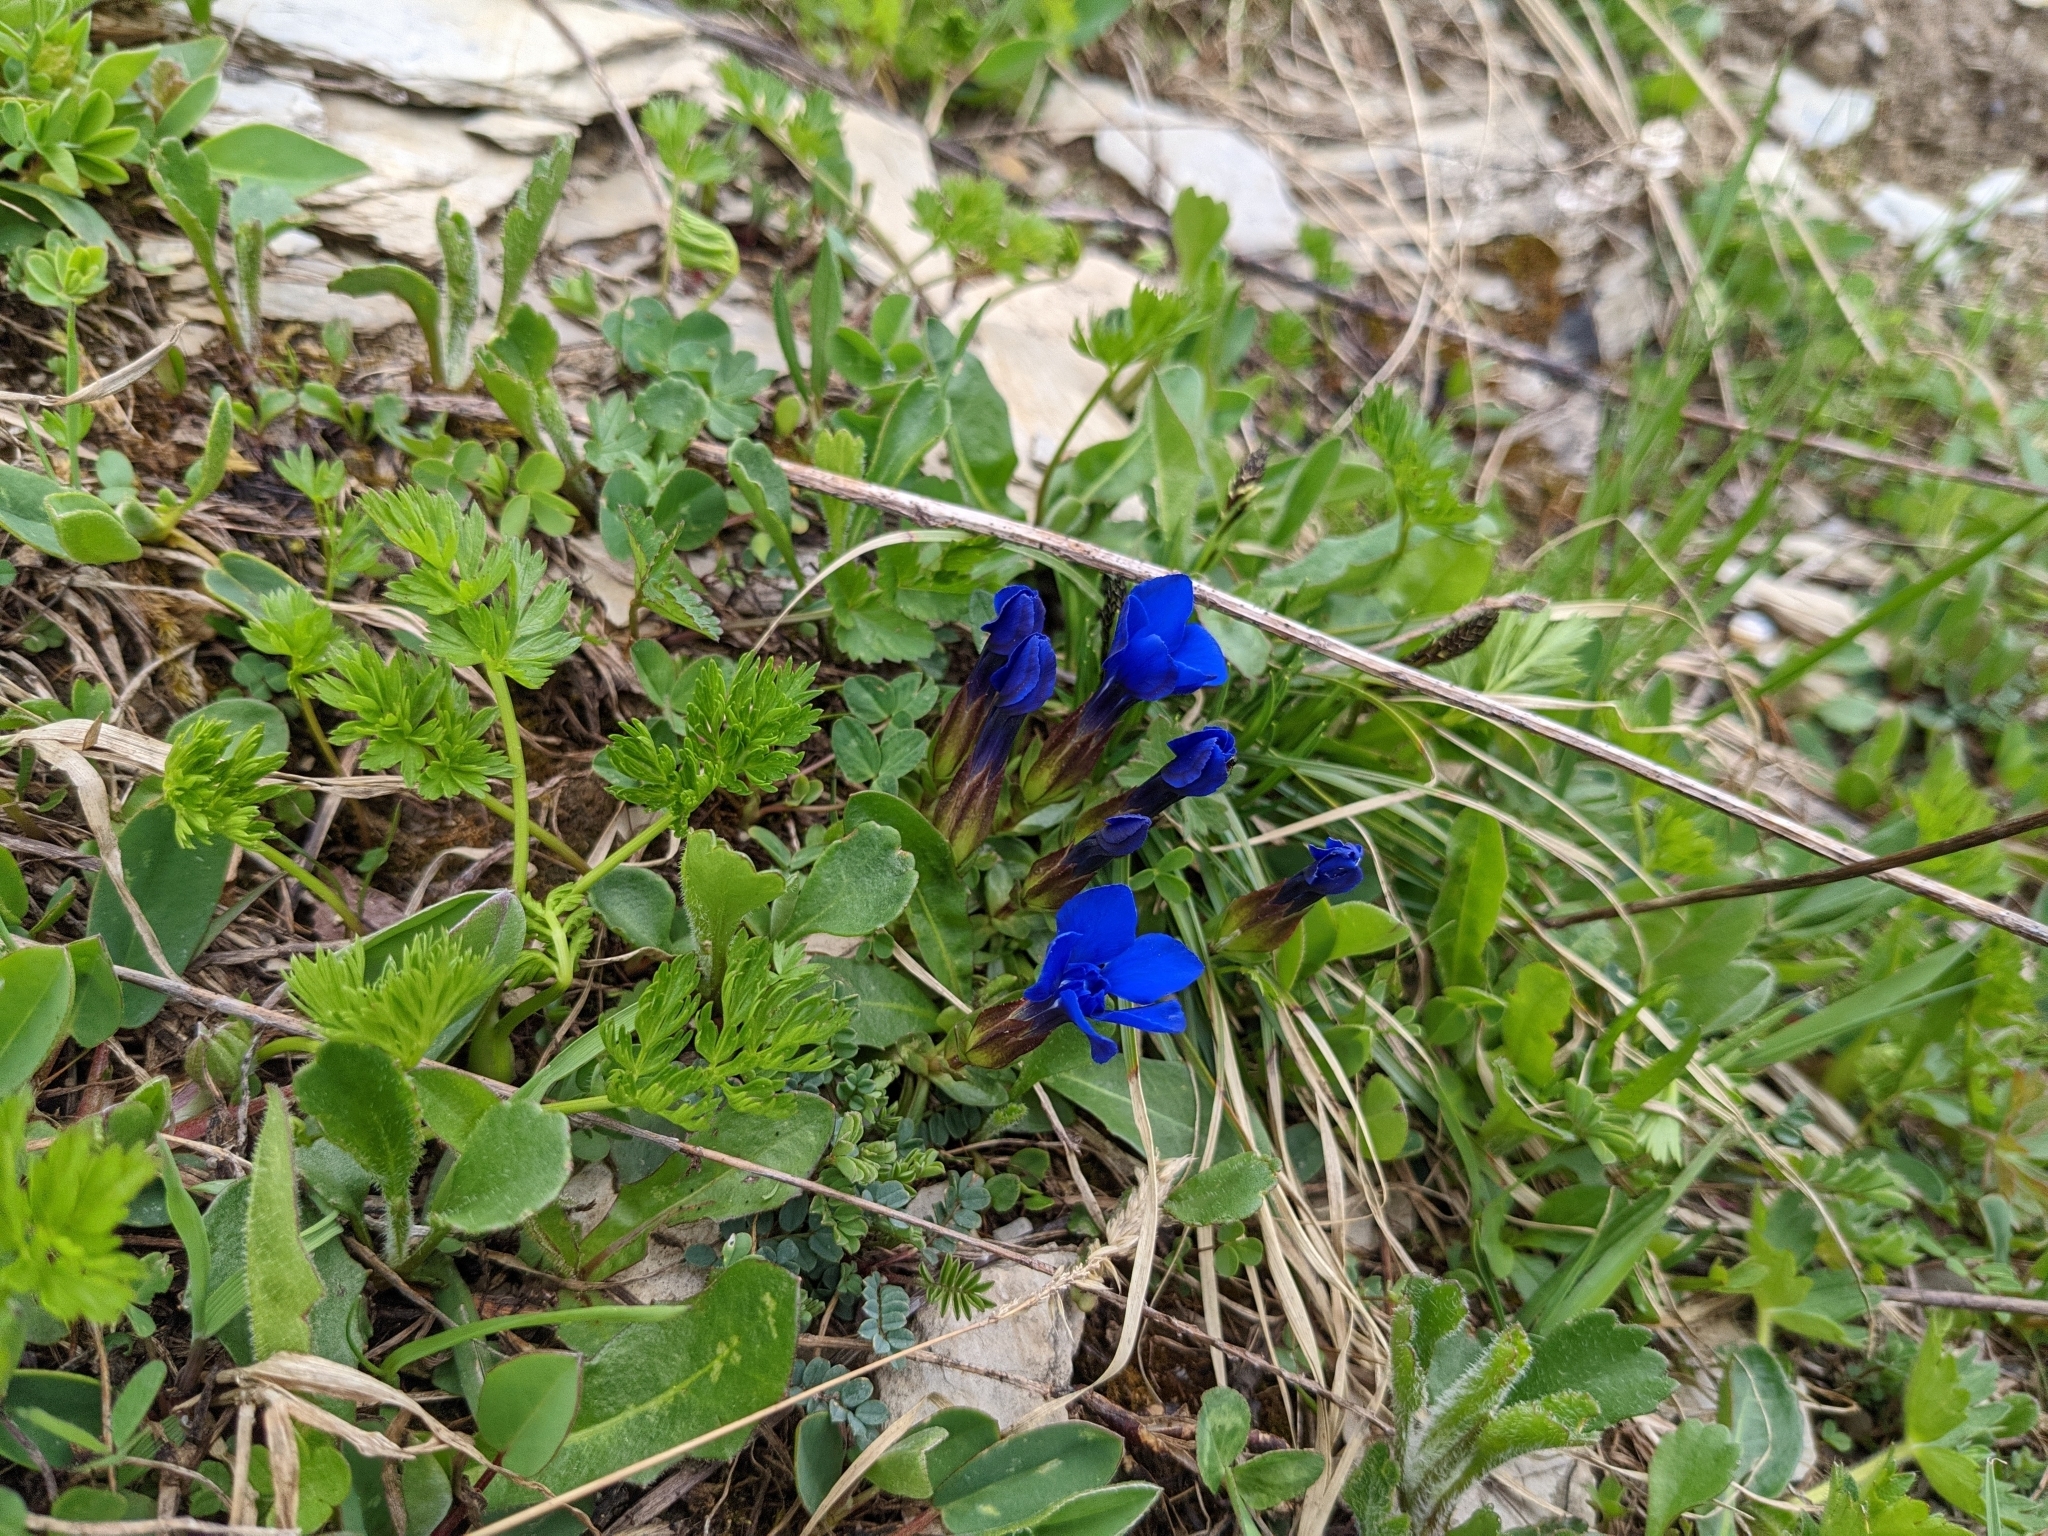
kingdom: Plantae
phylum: Tracheophyta
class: Magnoliopsida
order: Gentianales
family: Gentianaceae
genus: Gentiana
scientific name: Gentiana verna
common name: Spring gentian
